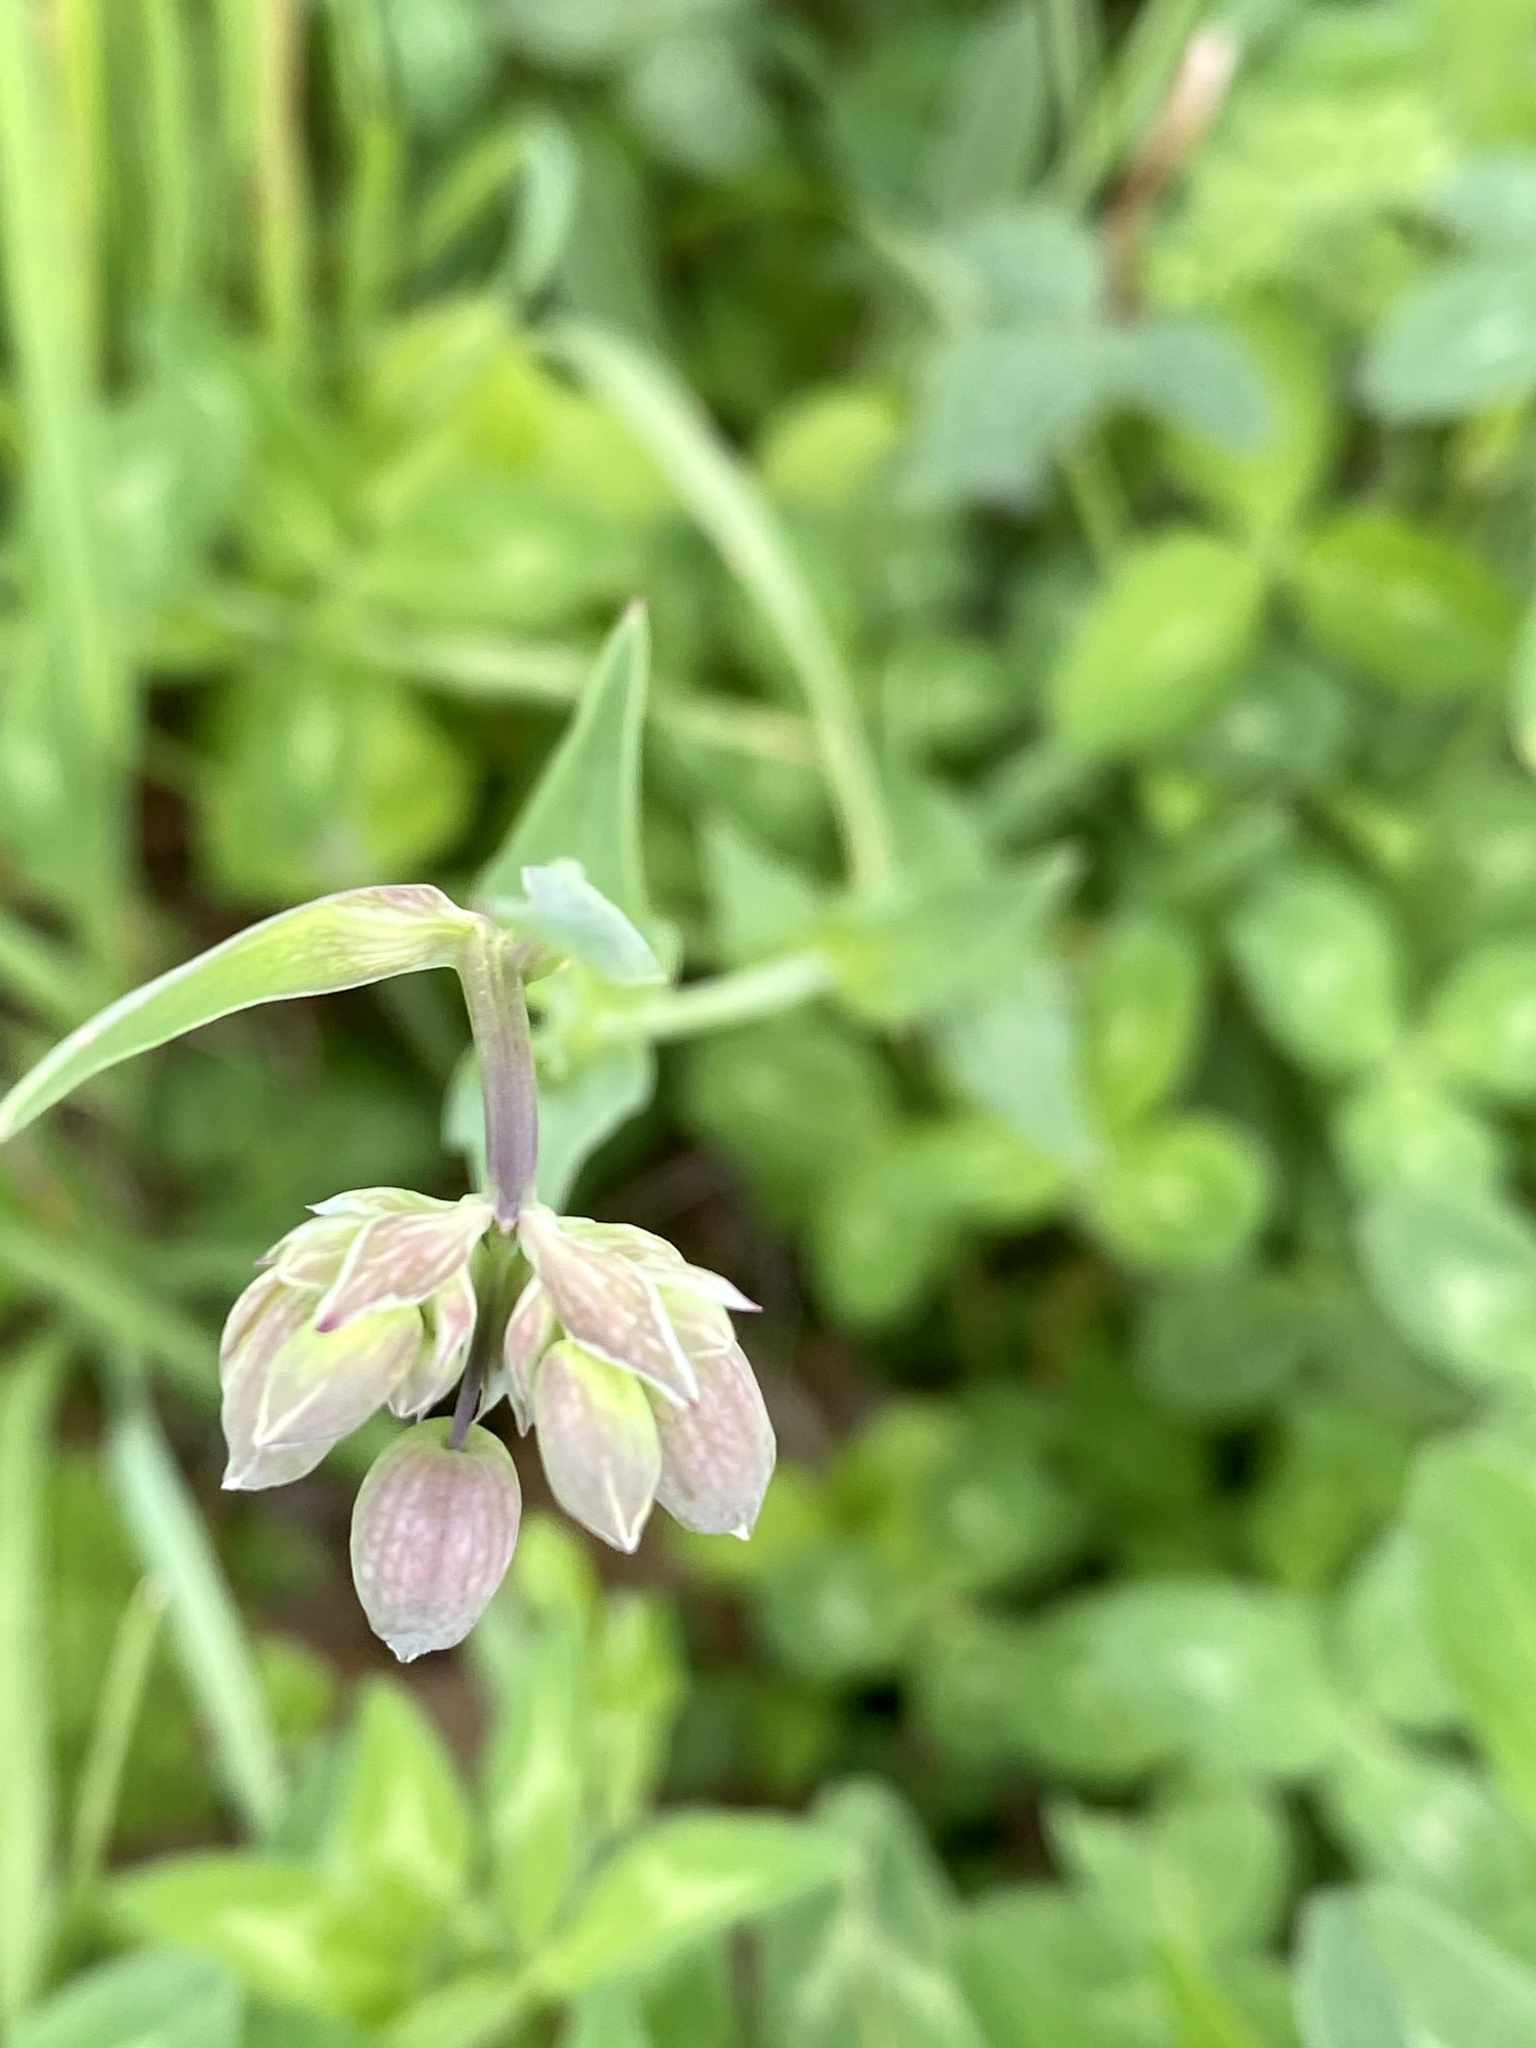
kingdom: Plantae
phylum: Tracheophyta
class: Magnoliopsida
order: Caryophyllales
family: Caryophyllaceae
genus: Silene
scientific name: Silene vulgaris
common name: Bladder campion
